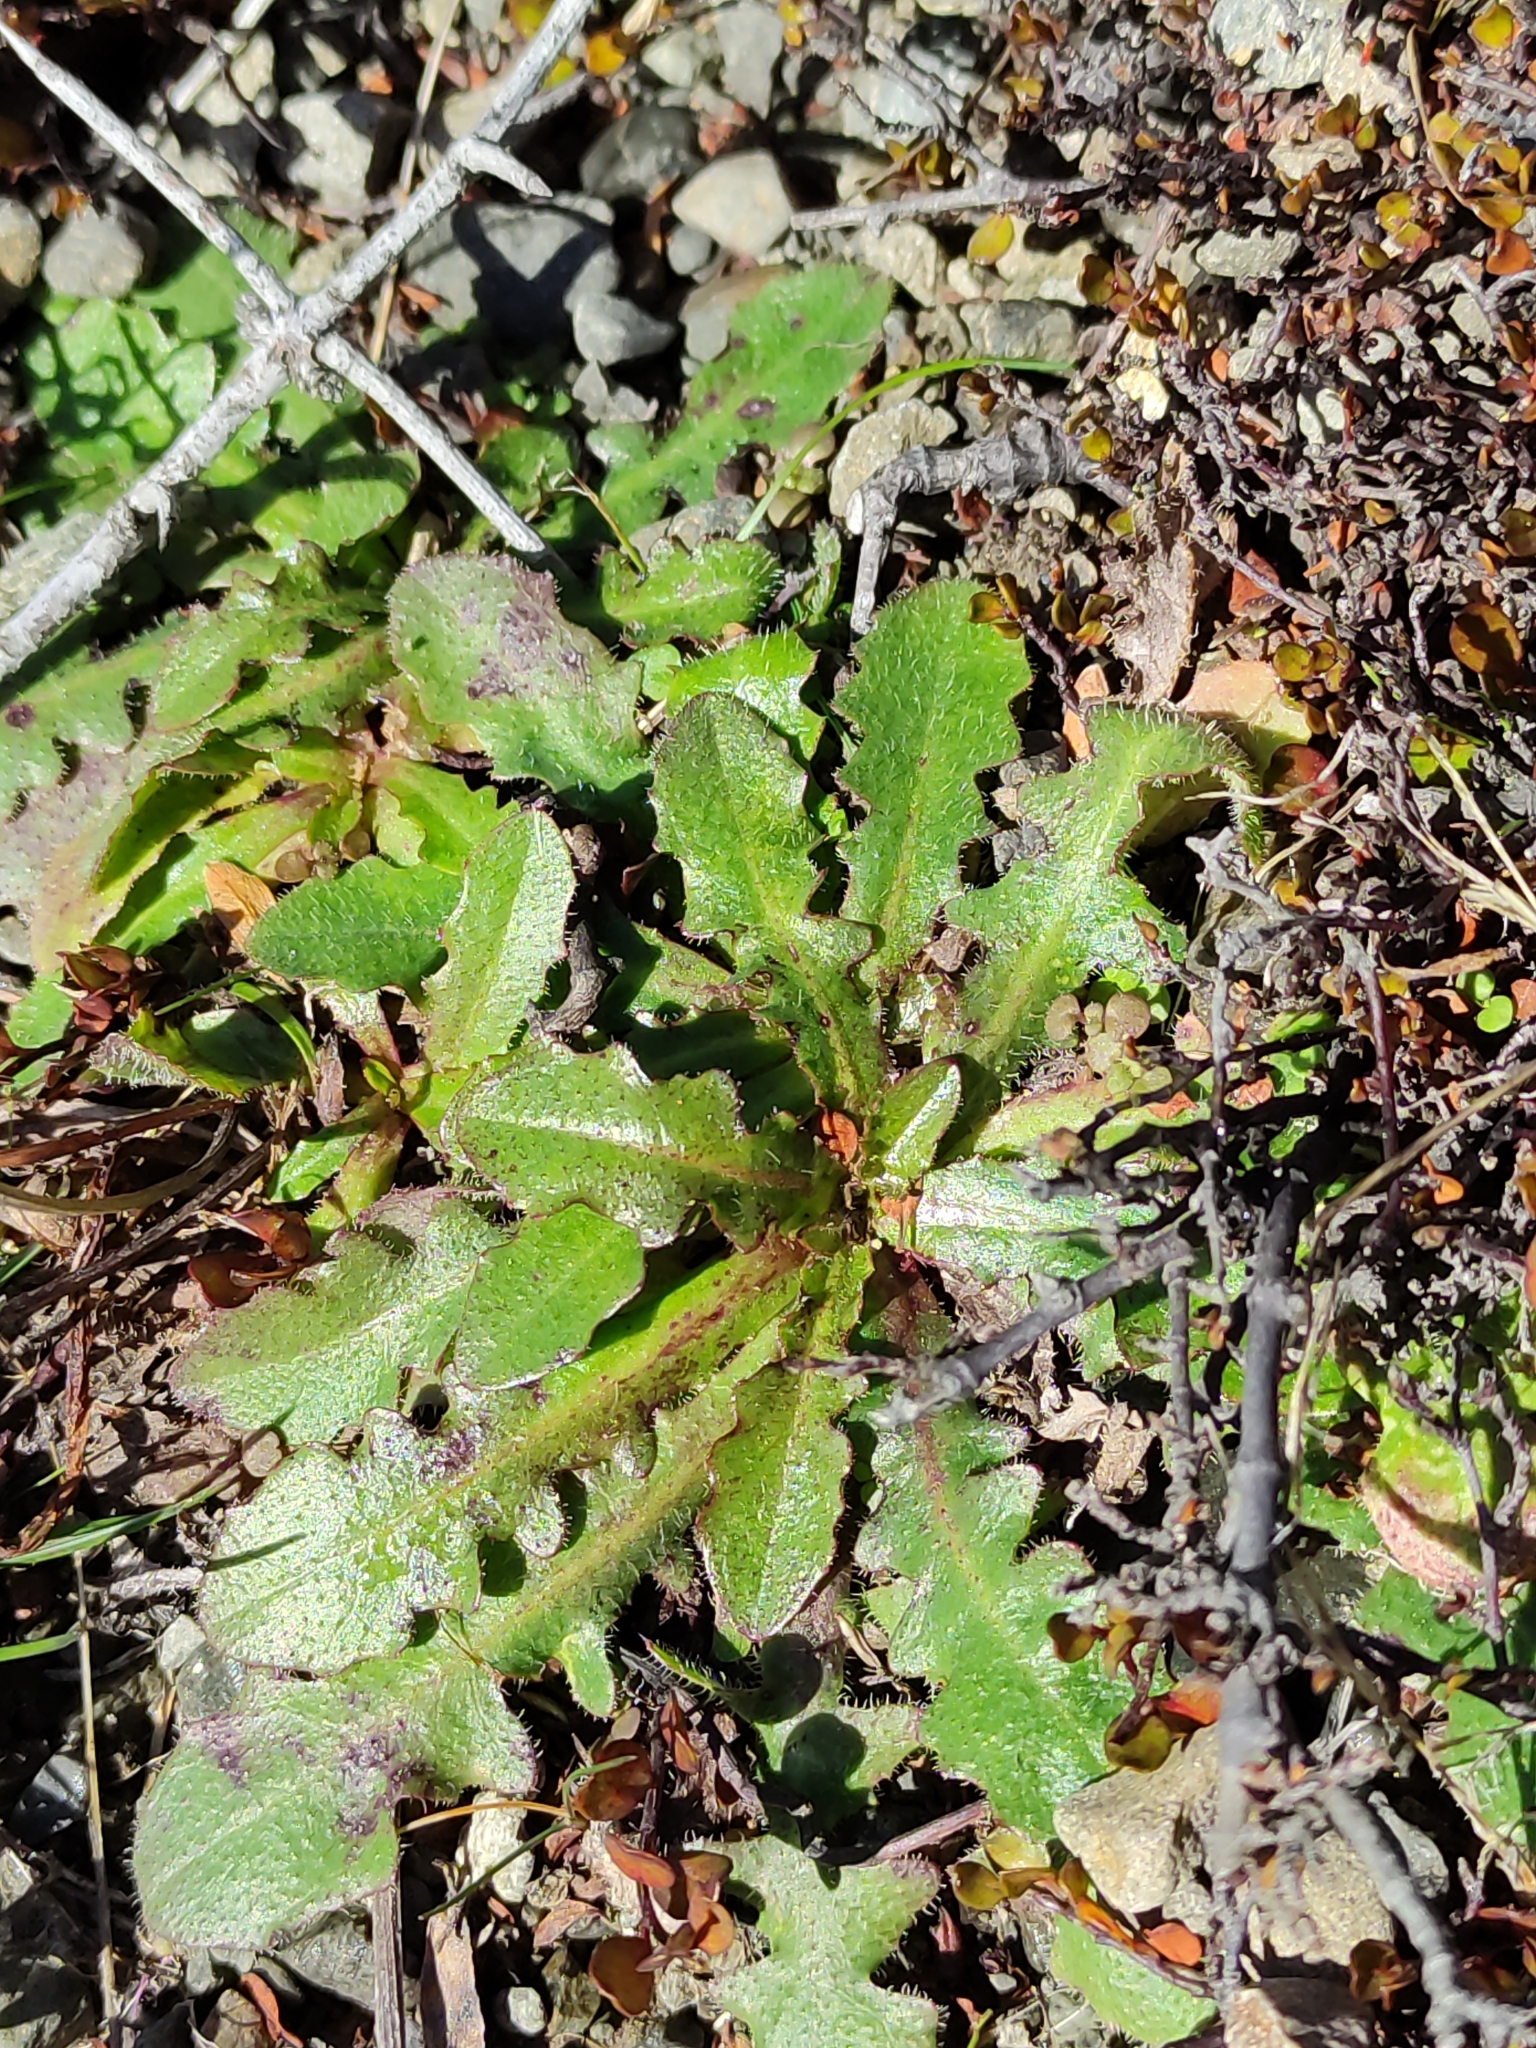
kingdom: Plantae
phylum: Tracheophyta
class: Magnoliopsida
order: Asterales
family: Asteraceae
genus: Hypochaeris
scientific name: Hypochaeris radicata
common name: Flatweed
